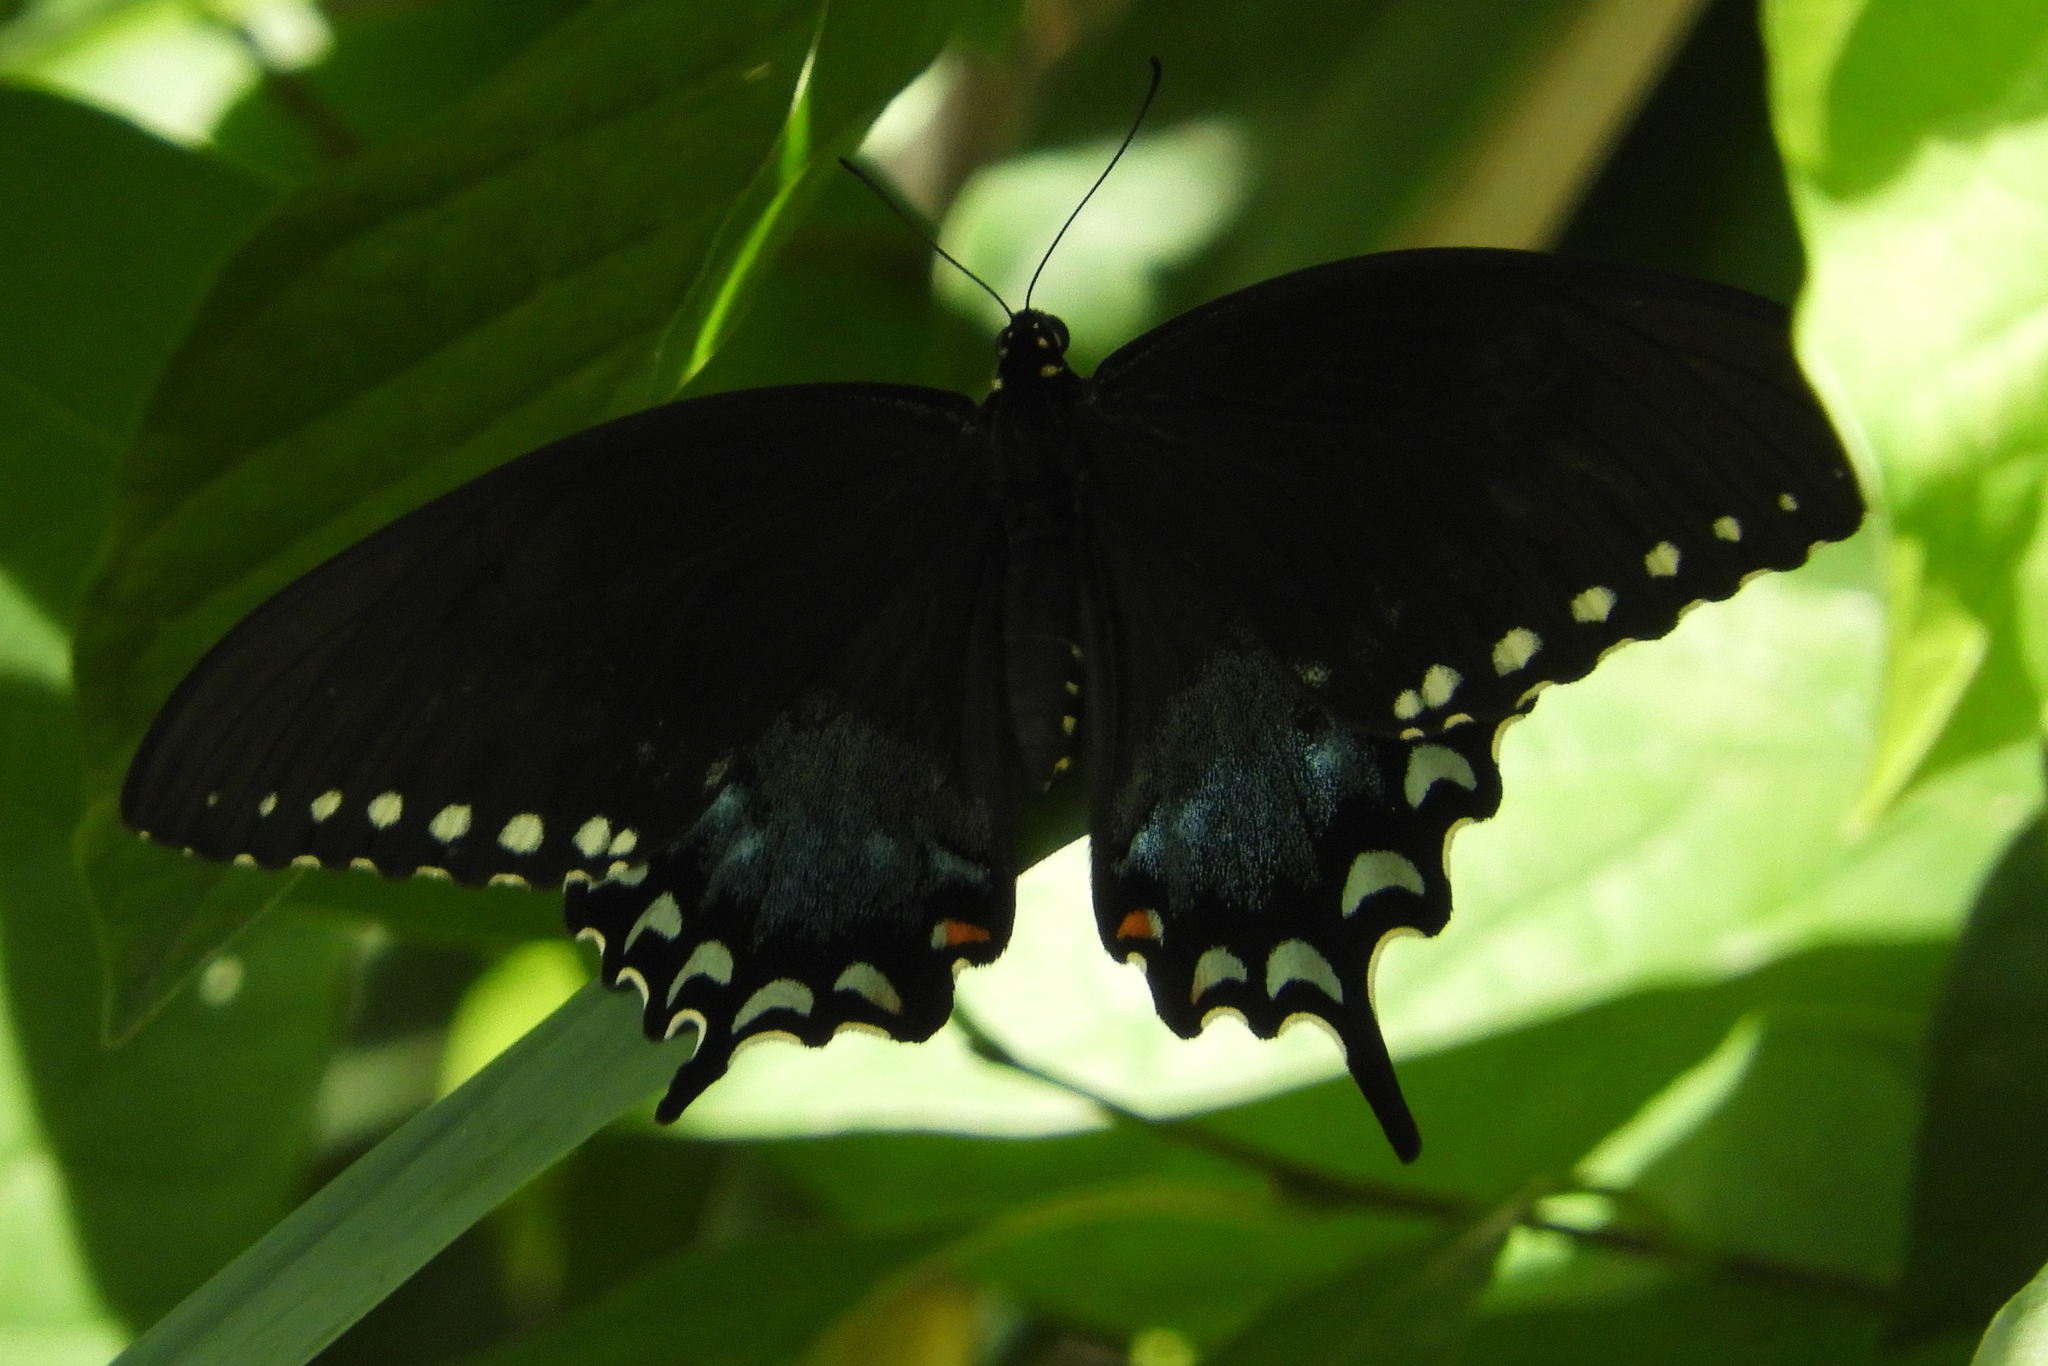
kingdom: Animalia
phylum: Arthropoda
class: Insecta
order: Lepidoptera
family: Papilionidae
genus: Papilio
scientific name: Papilio troilus
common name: Spicebush swallowtail
